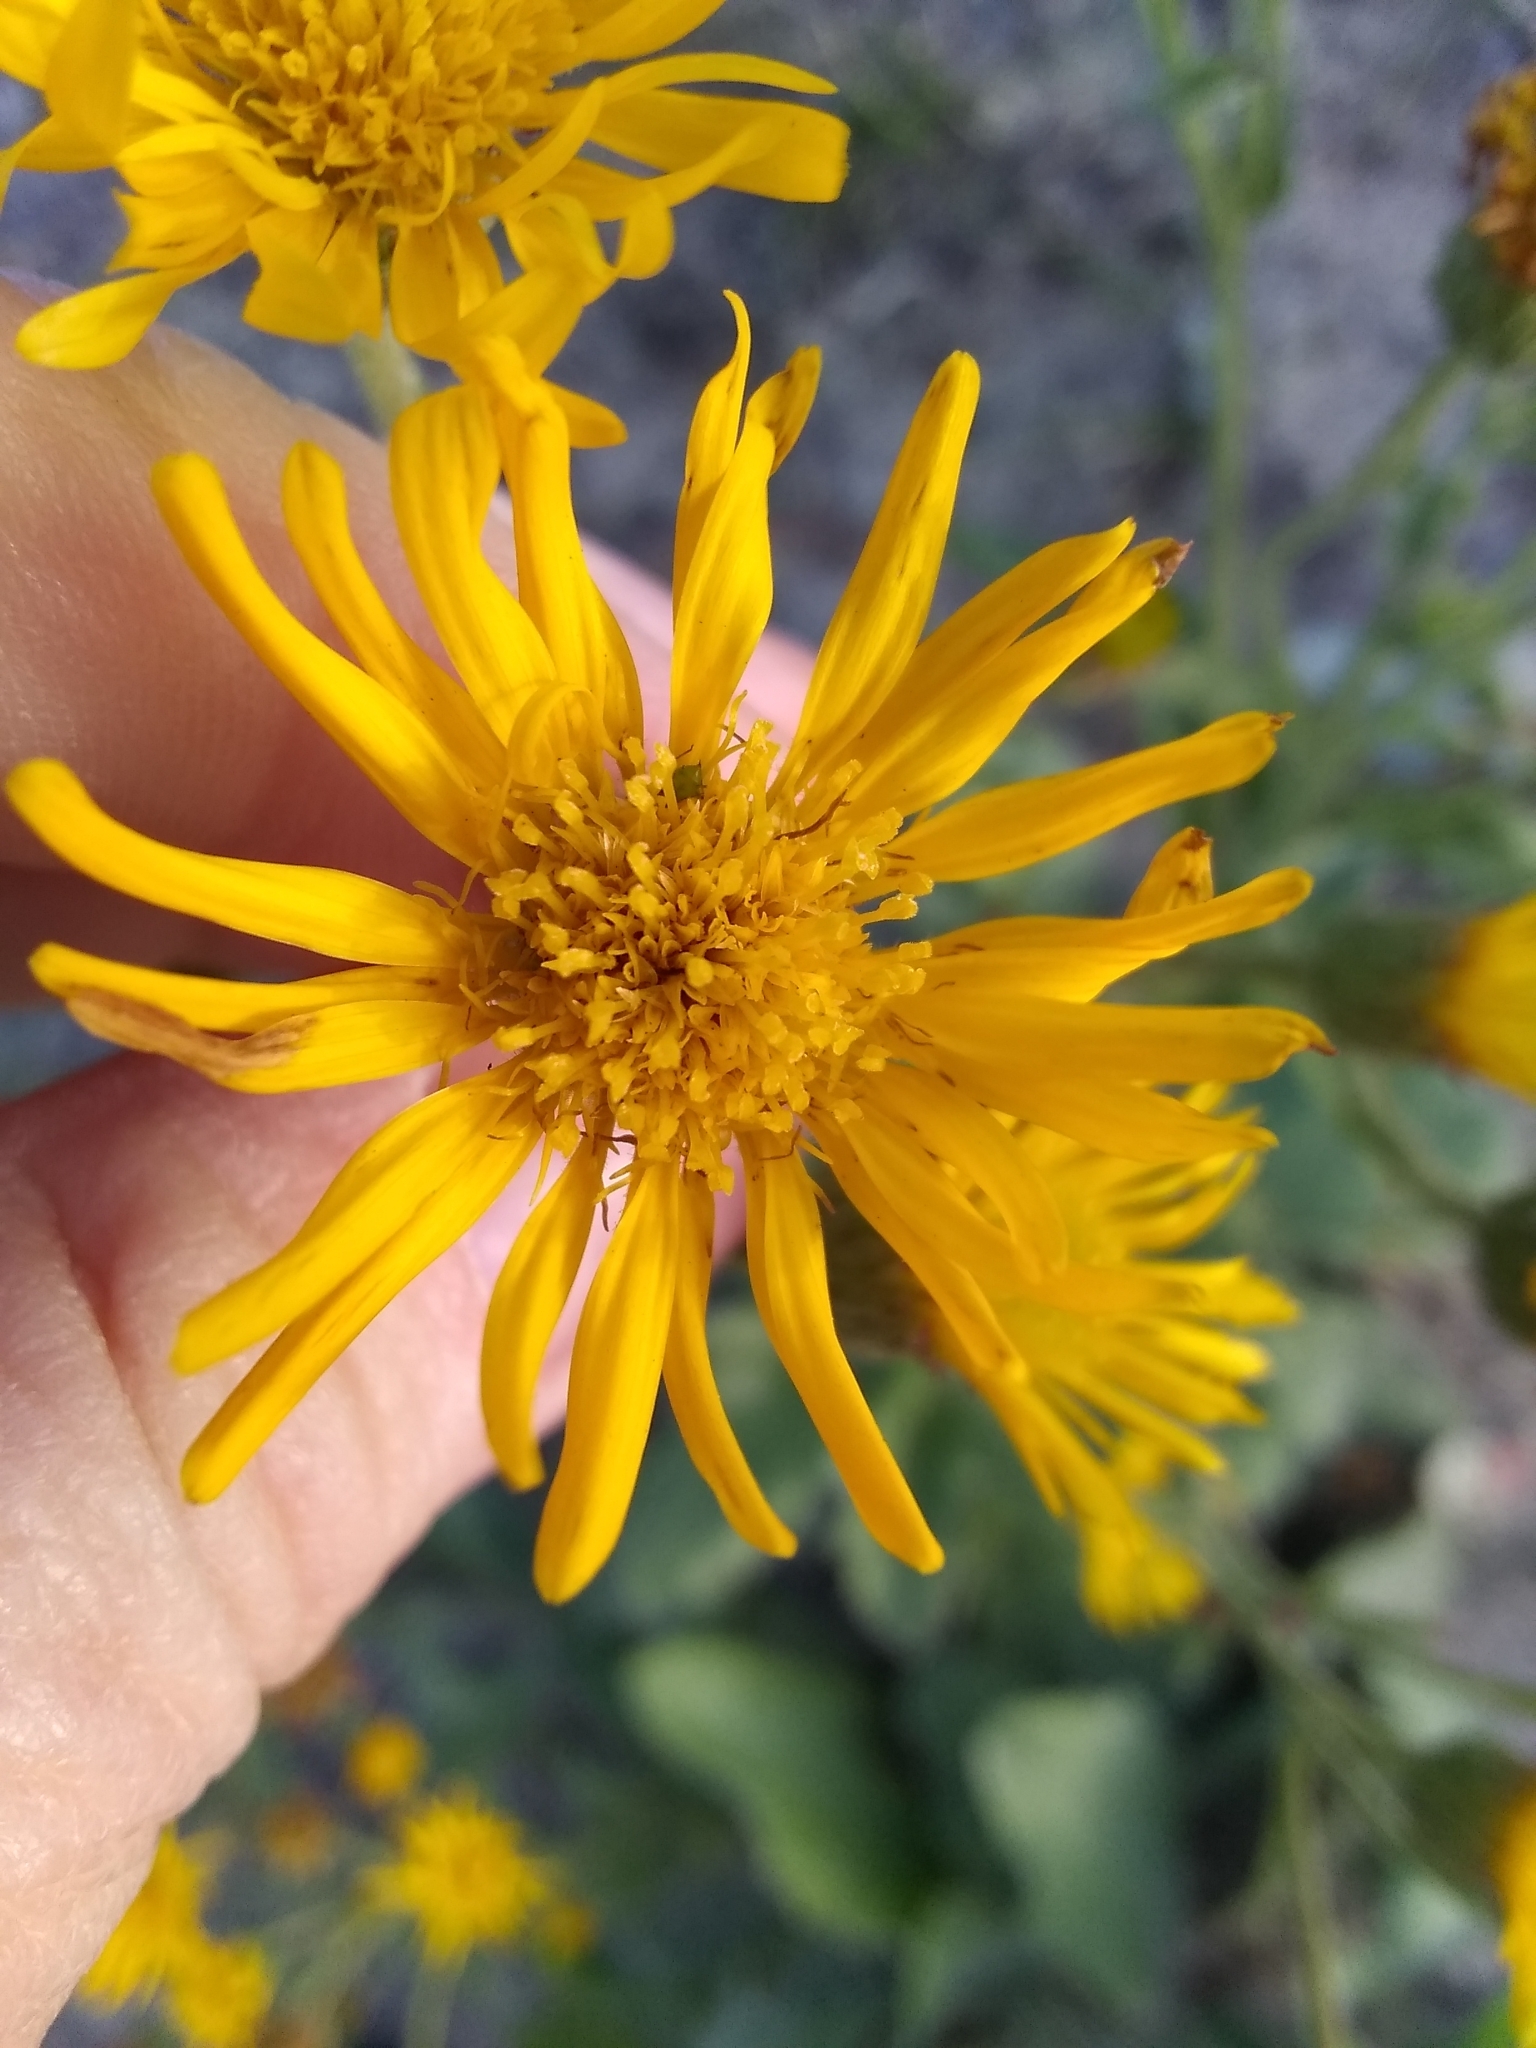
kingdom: Plantae
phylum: Tracheophyta
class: Magnoliopsida
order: Asterales
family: Asteraceae
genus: Heterotheca
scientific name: Heterotheca grandiflora
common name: Telegraphweed
